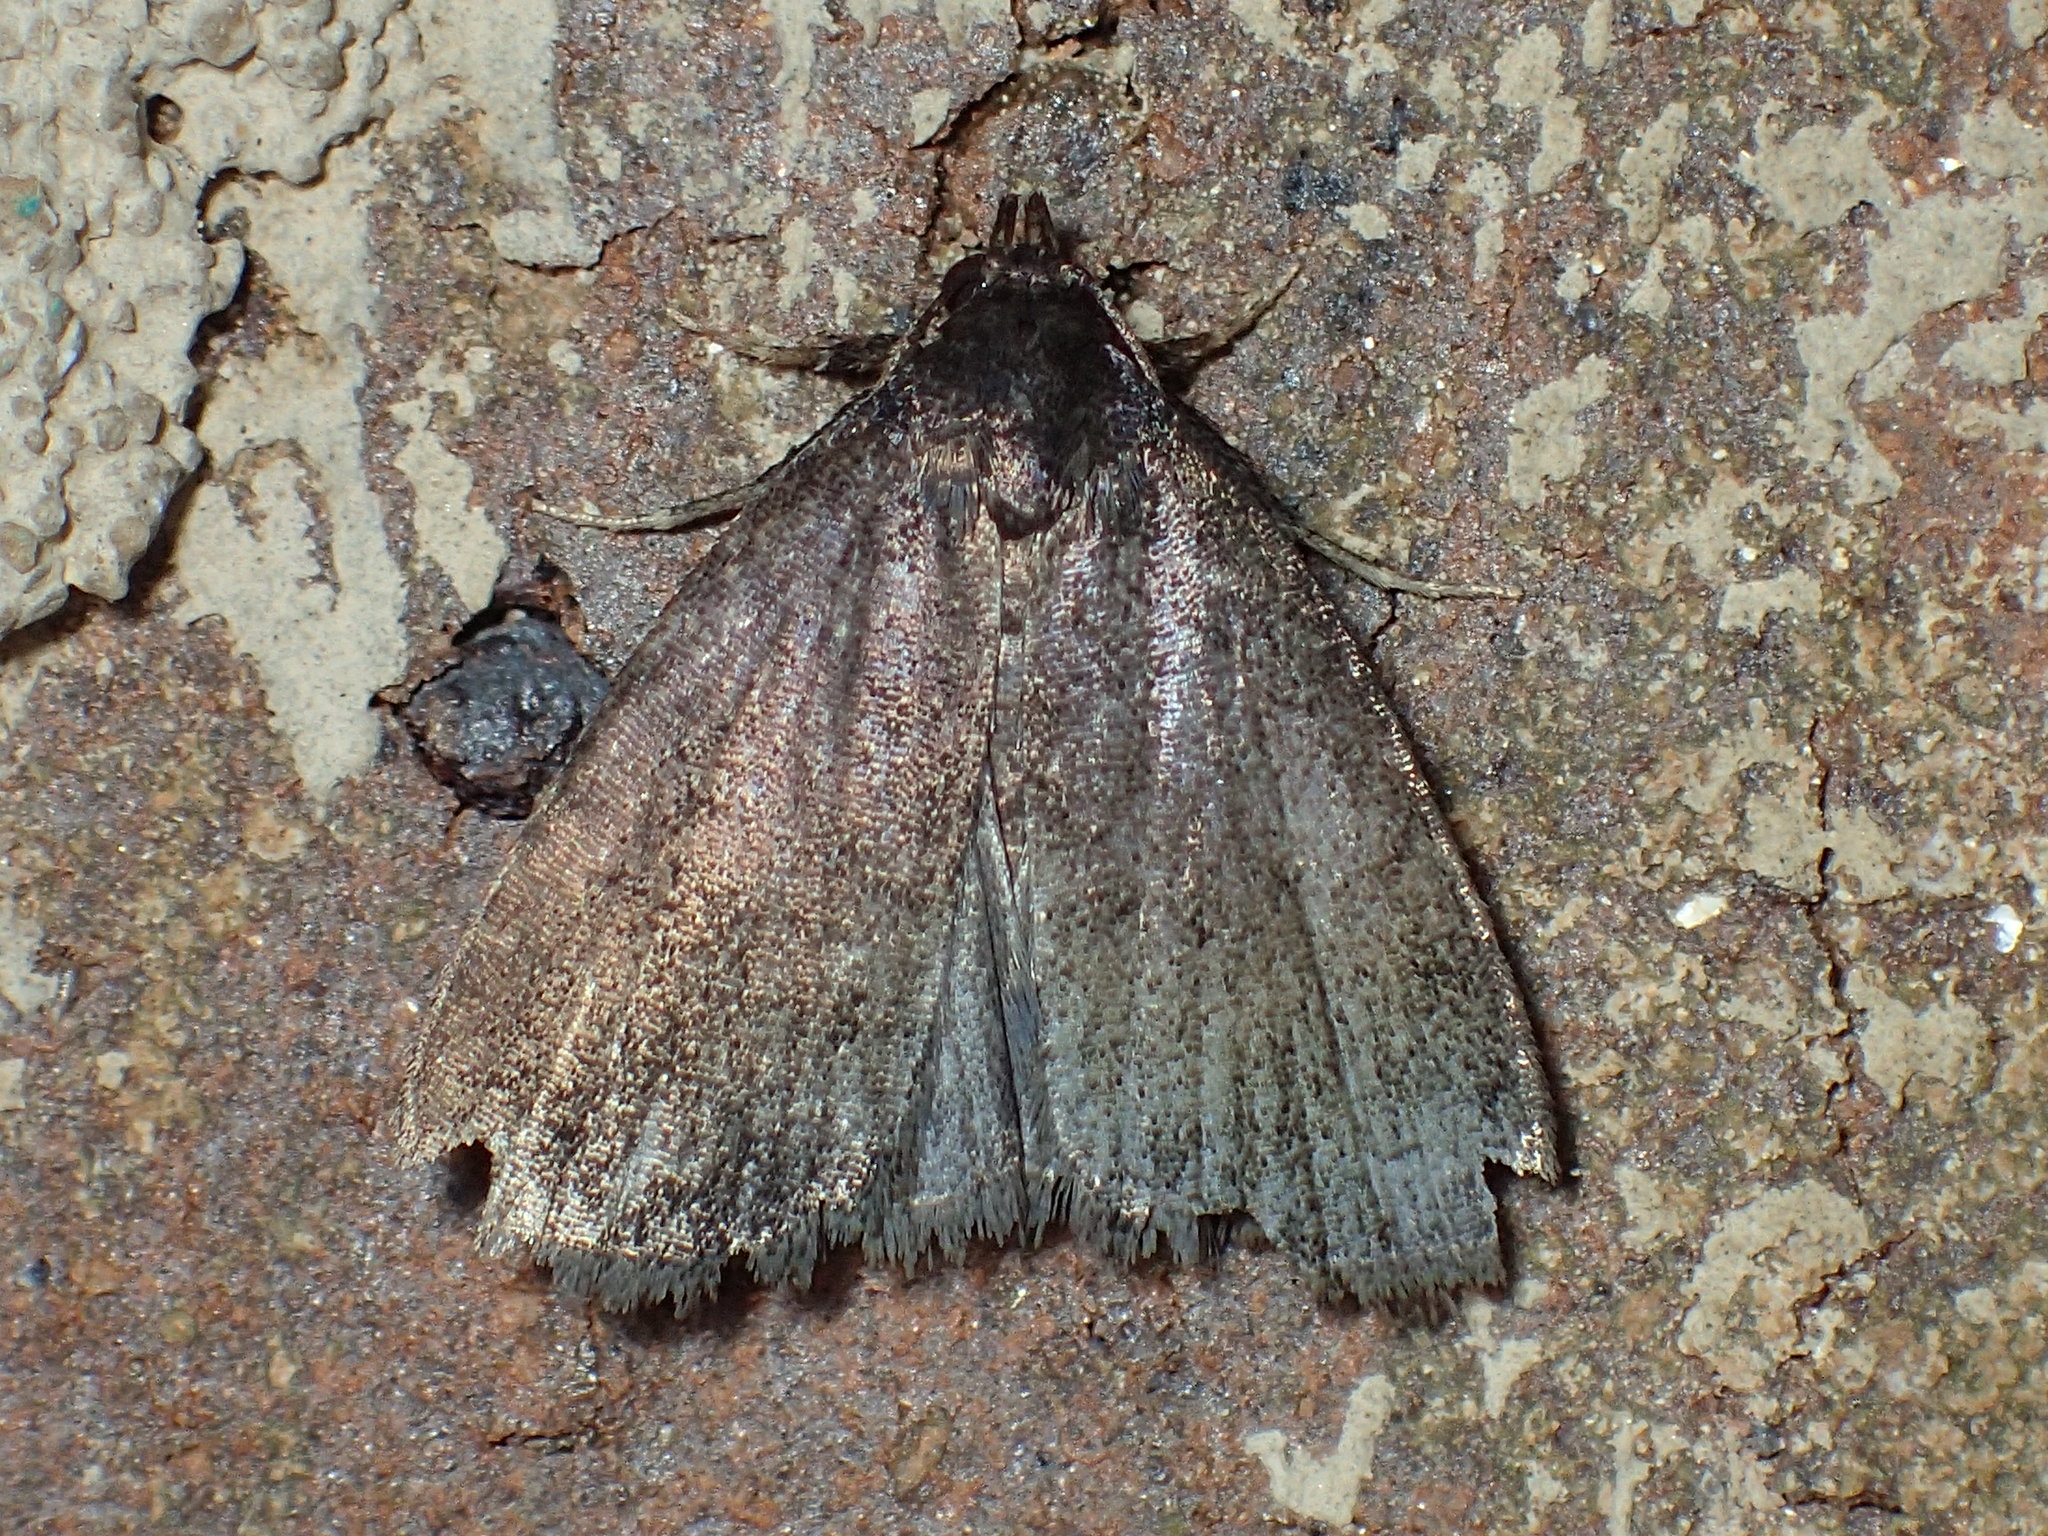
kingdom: Animalia
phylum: Arthropoda
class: Insecta
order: Lepidoptera
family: Erebidae
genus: Idia
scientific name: Idia rotundalis
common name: Rotund idia moth
